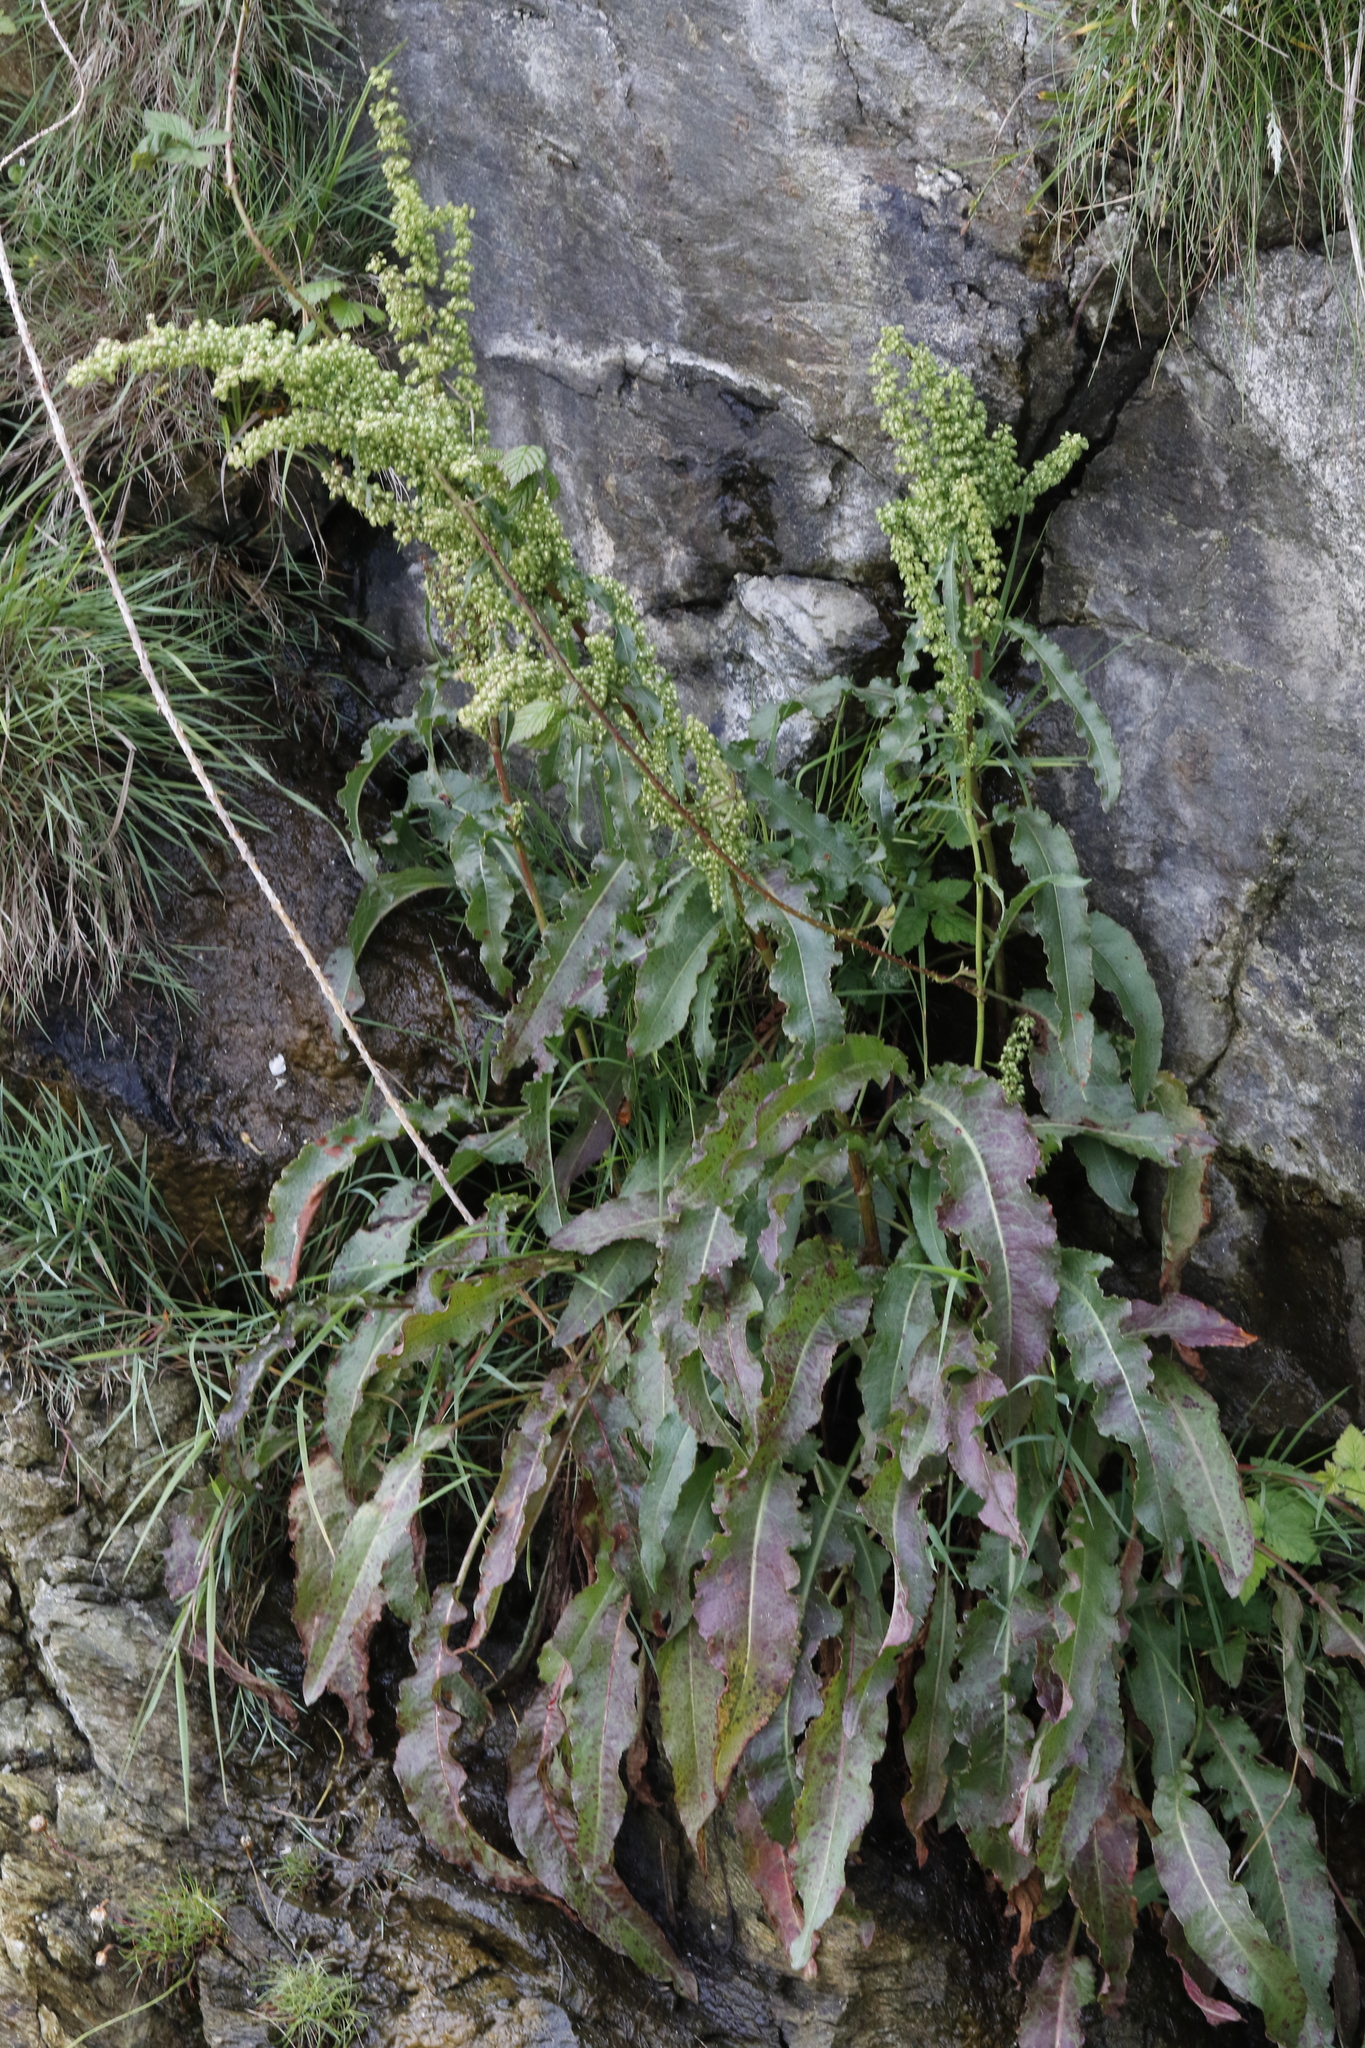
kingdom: Plantae
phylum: Tracheophyta
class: Magnoliopsida
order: Caryophyllales
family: Polygonaceae
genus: Rumex
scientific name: Rumex crispus
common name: Curled dock
